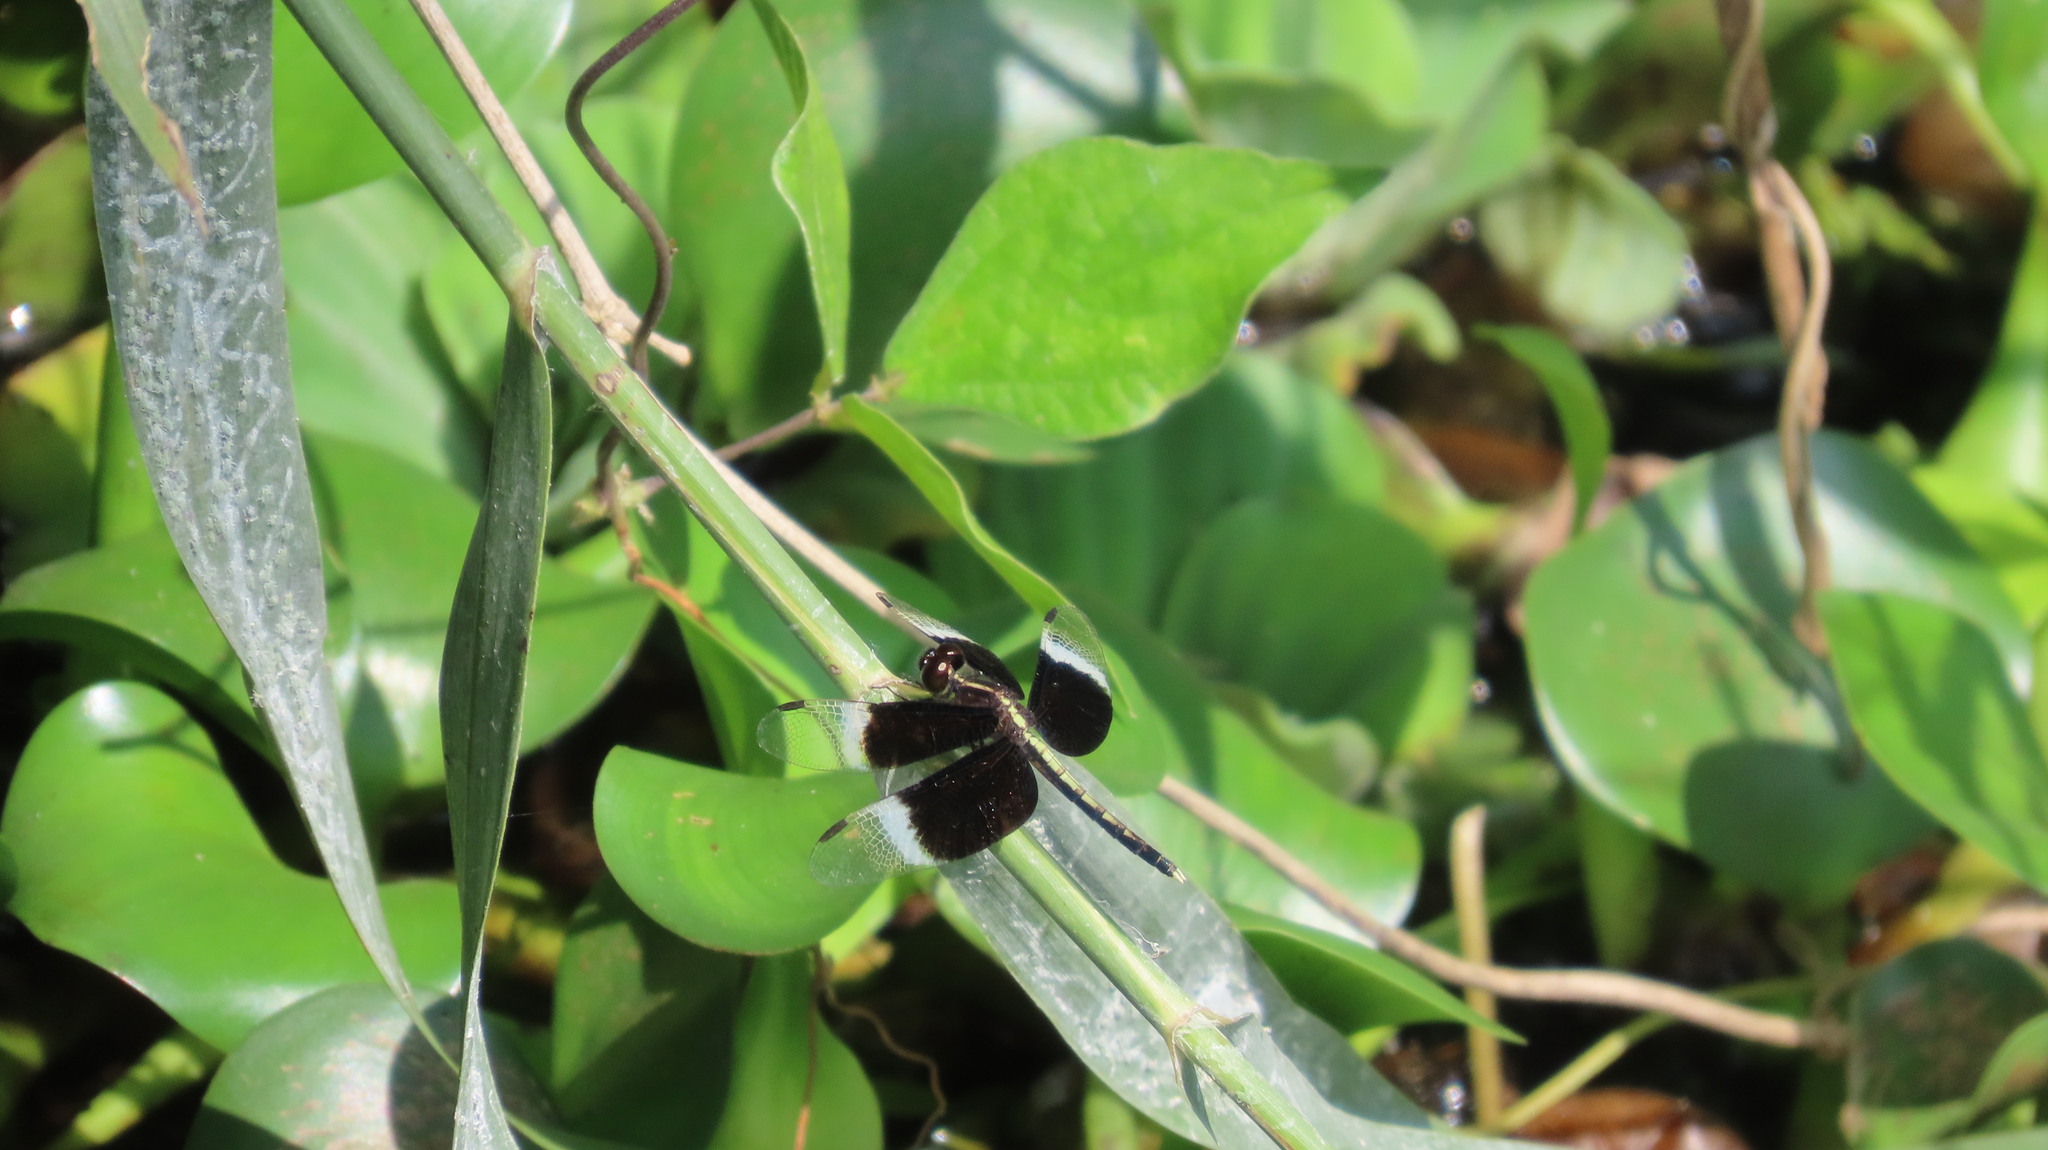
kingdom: Animalia
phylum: Arthropoda
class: Insecta
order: Odonata
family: Libellulidae
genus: Neurothemis
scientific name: Neurothemis tullia
